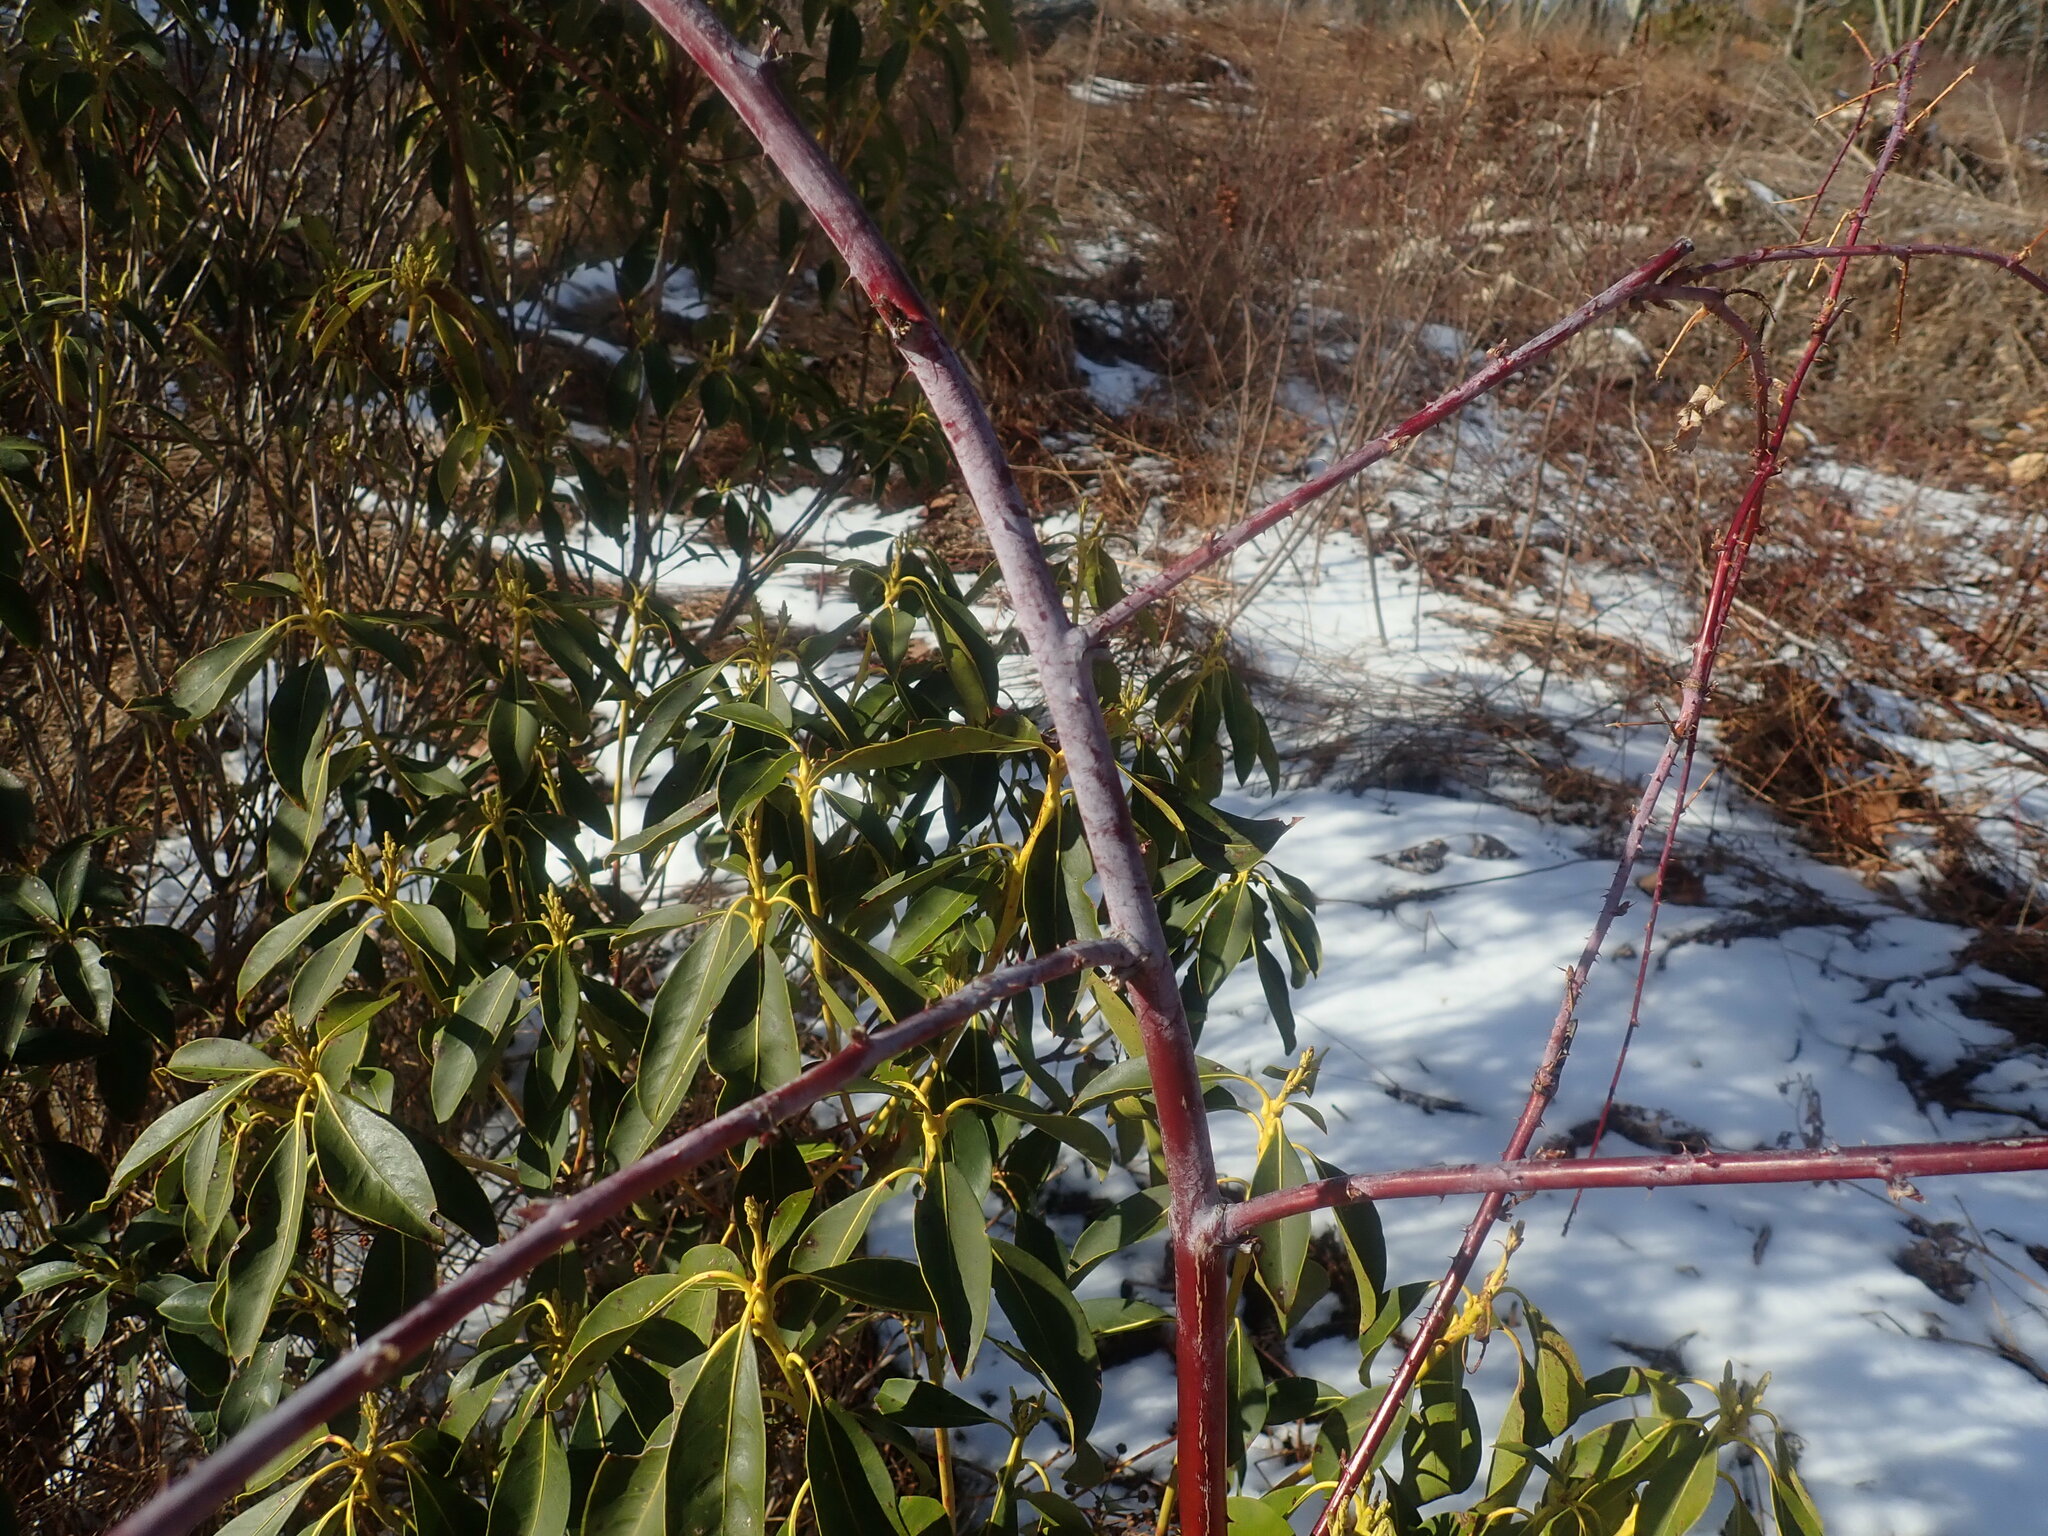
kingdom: Plantae
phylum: Tracheophyta
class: Magnoliopsida
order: Rosales
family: Rosaceae
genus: Rubus
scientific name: Rubus occidentalis
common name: Black raspberry
